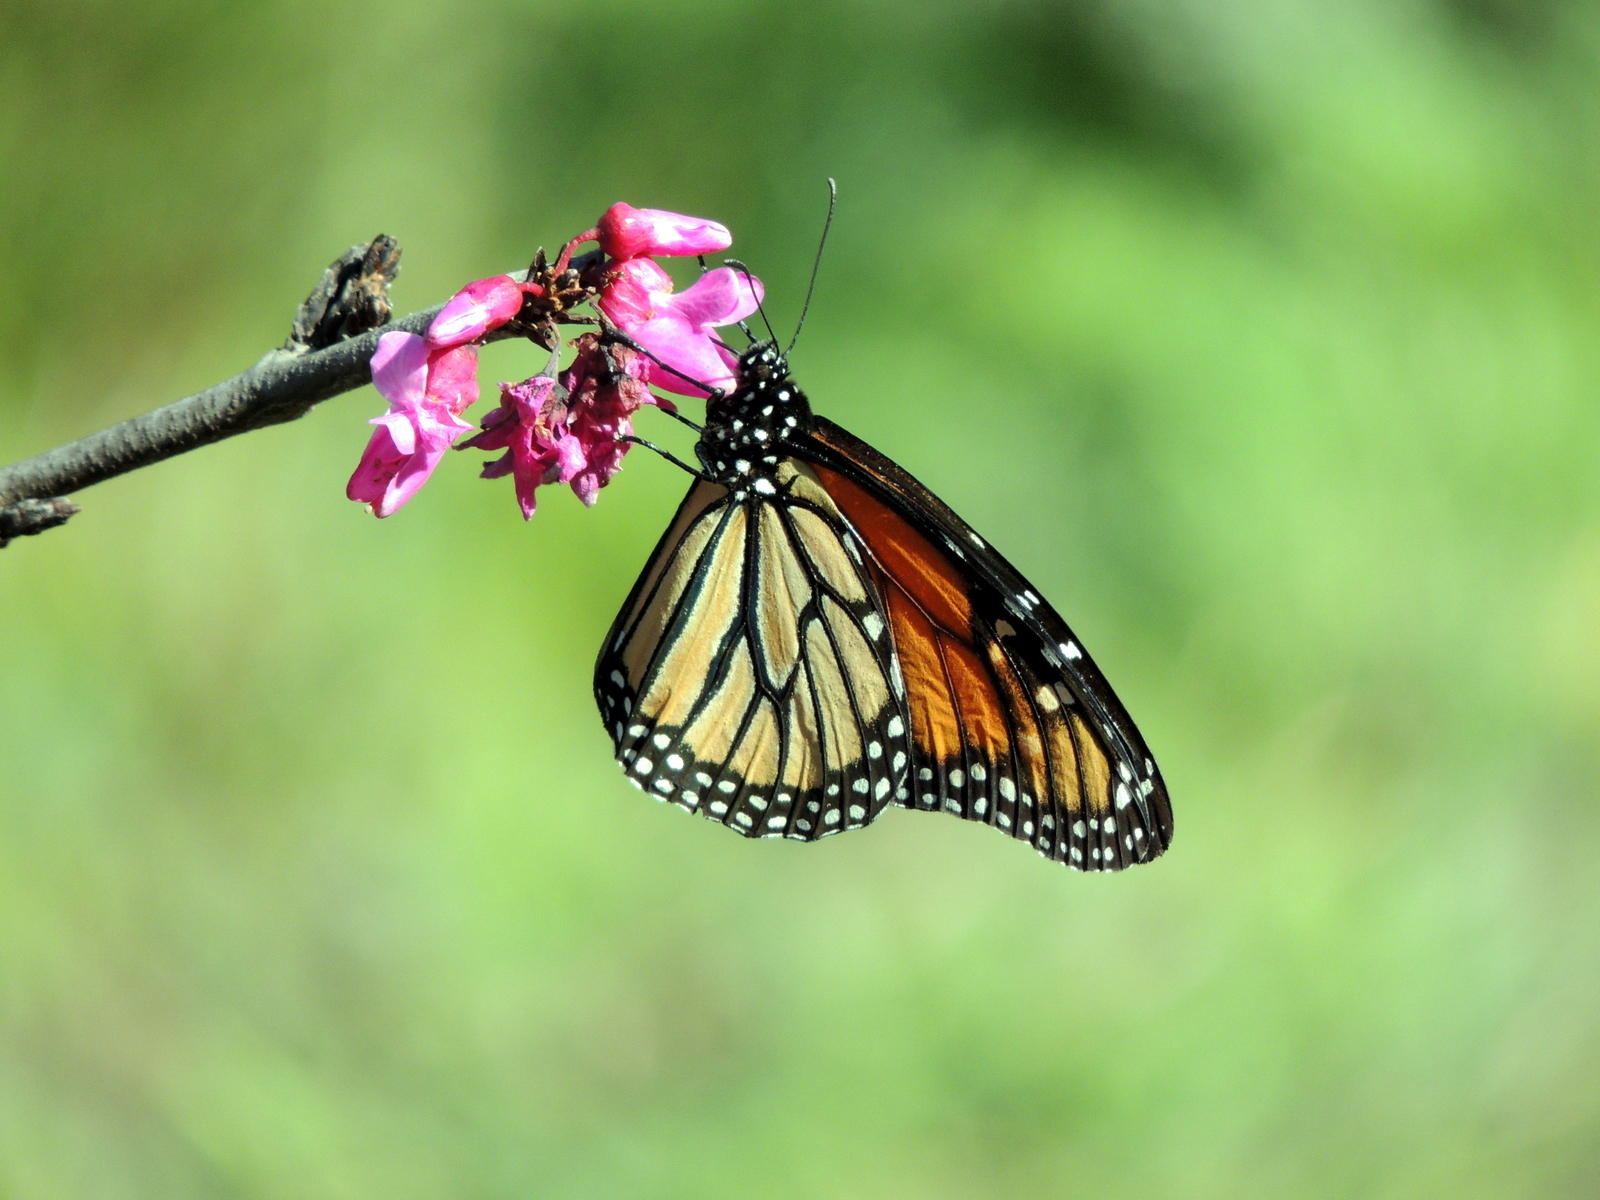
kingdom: Animalia
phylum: Arthropoda
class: Insecta
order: Lepidoptera
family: Nymphalidae
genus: Danaus
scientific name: Danaus plexippus
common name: Monarch
